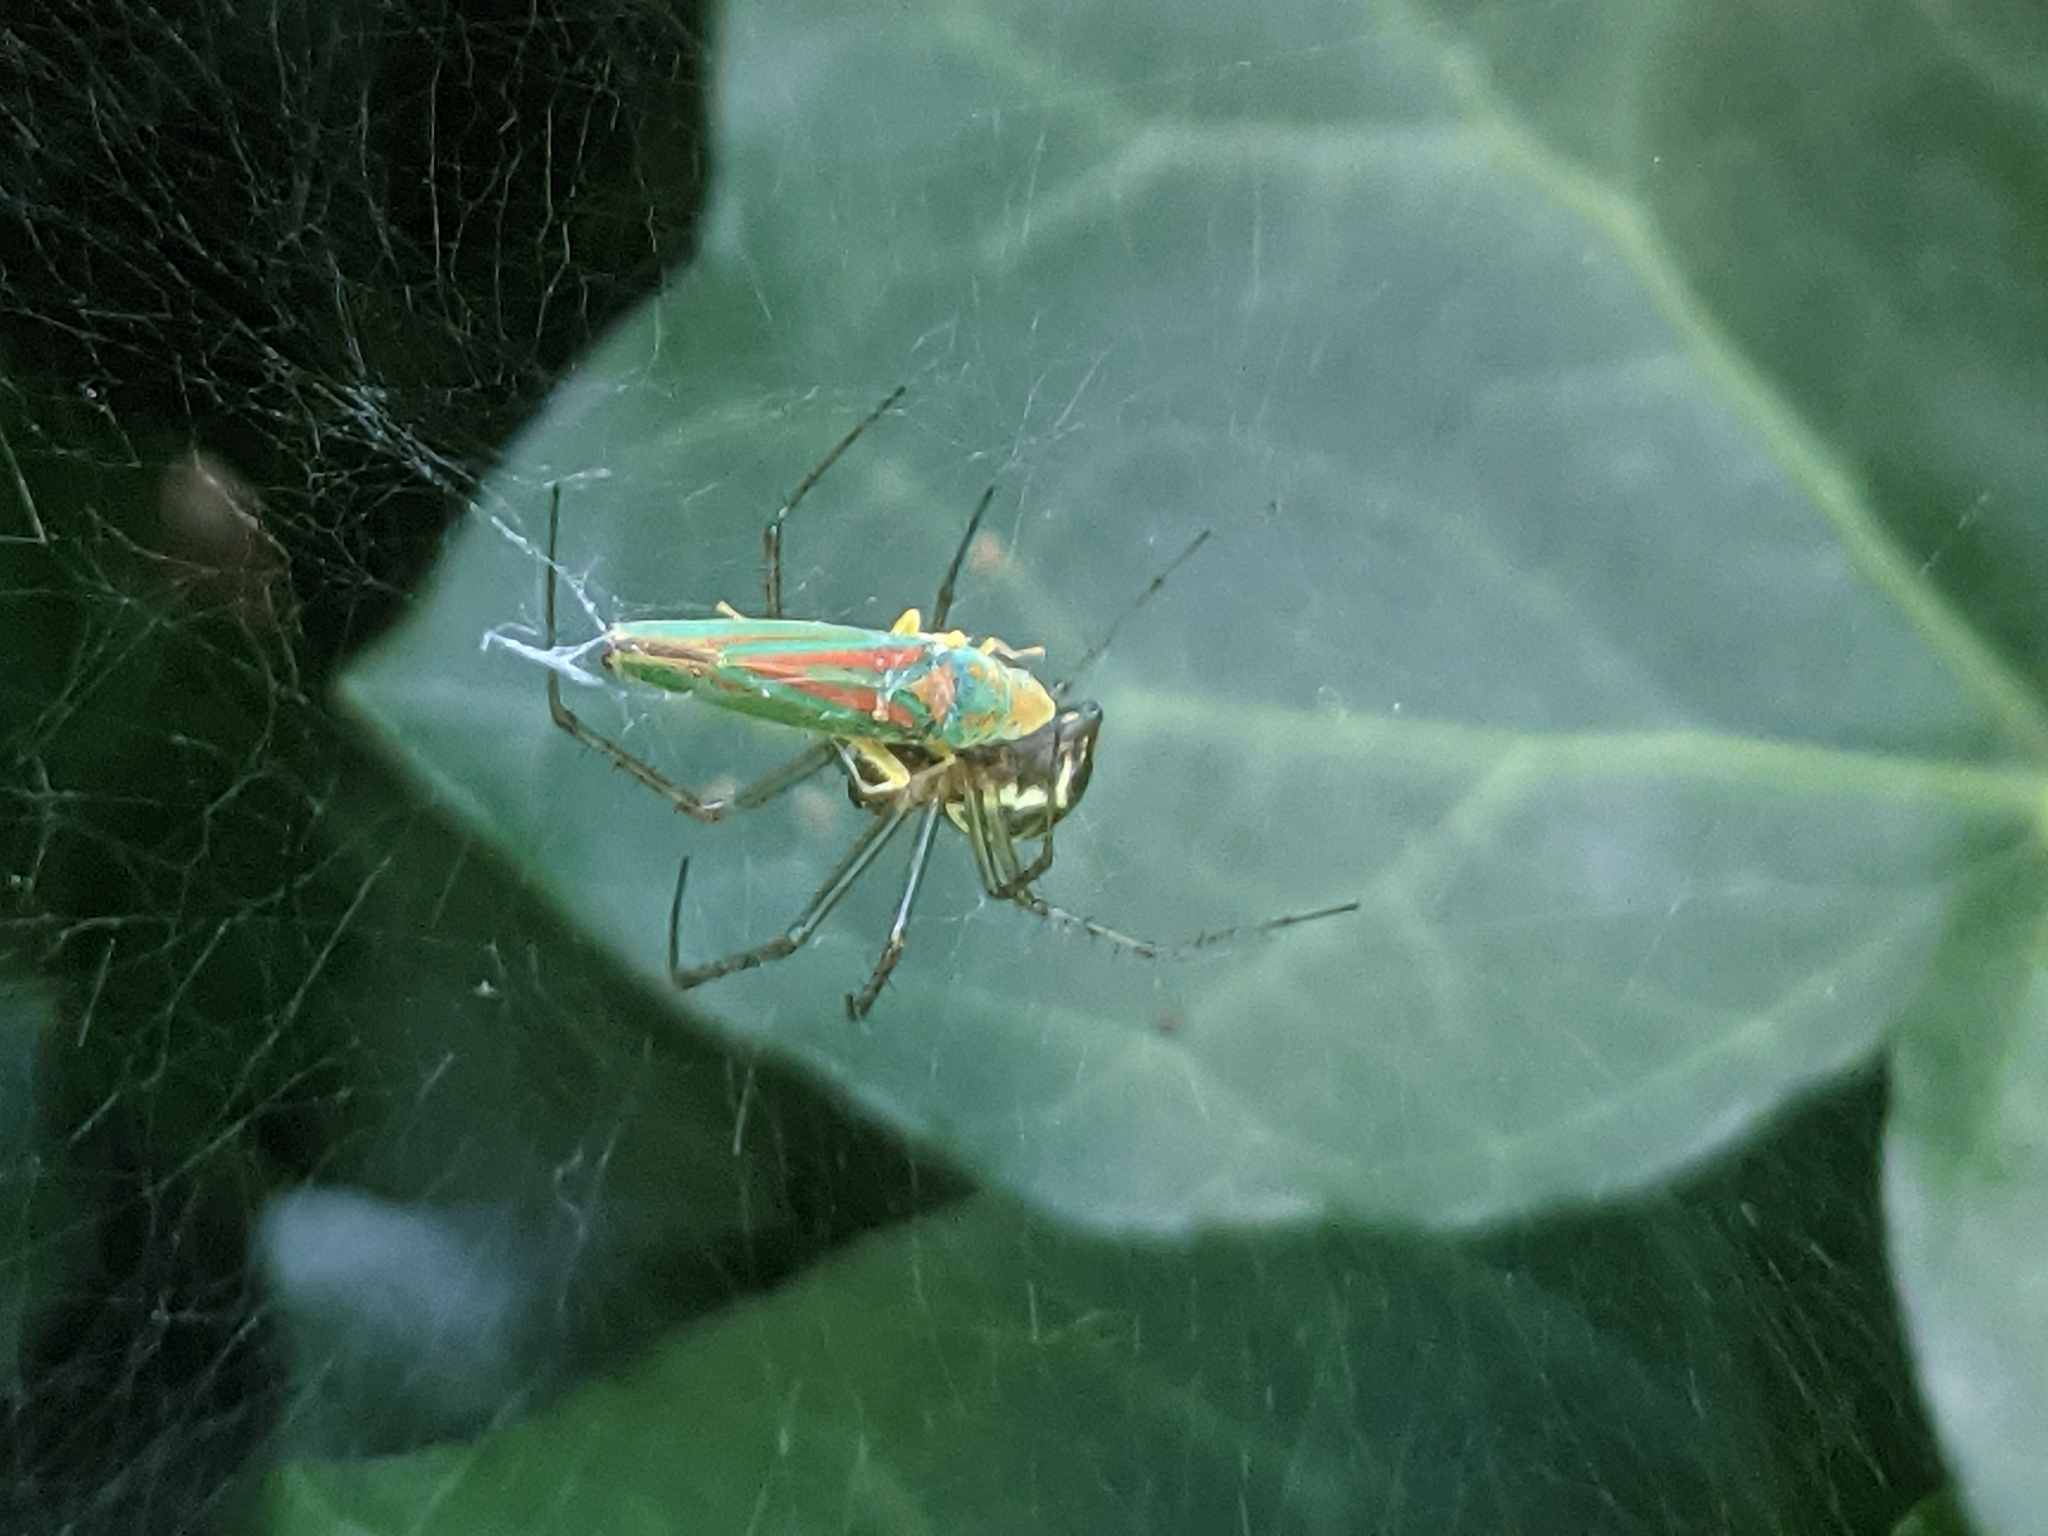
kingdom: Animalia
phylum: Arthropoda
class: Insecta
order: Hemiptera
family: Cicadellidae
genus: Graphocephala
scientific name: Graphocephala fennahi
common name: Rhododendron leafhopper
